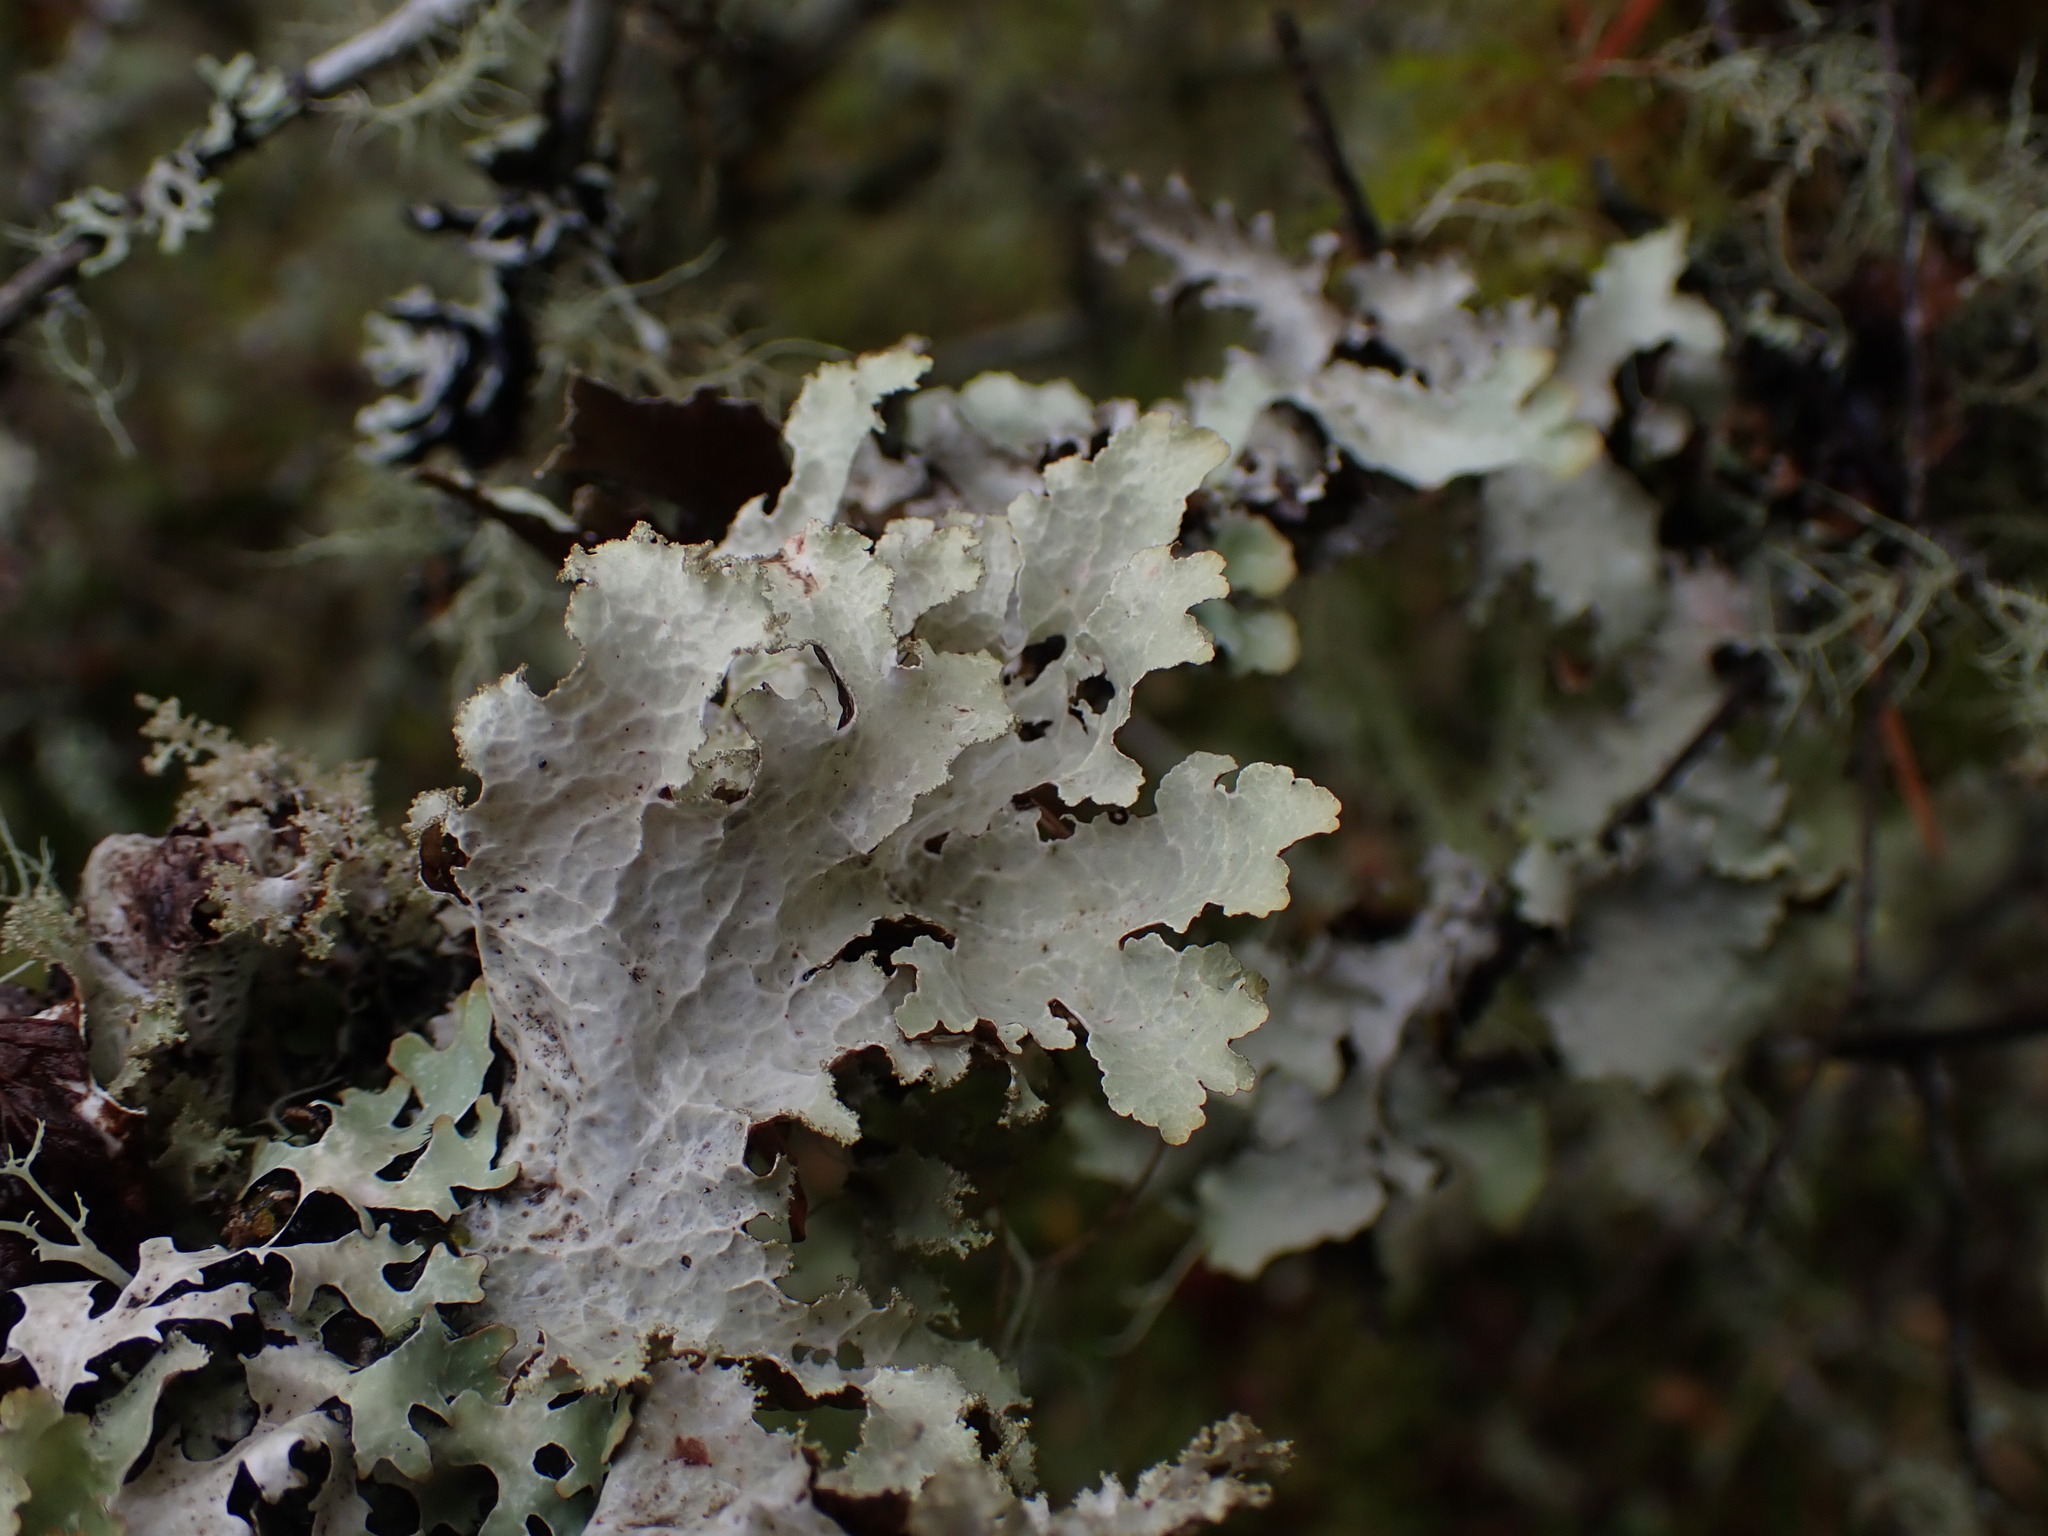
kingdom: Fungi
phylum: Ascomycota
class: Lecanoromycetes
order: Lecanorales
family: Parmeliaceae
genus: Platismatia
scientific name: Platismatia norvegica
